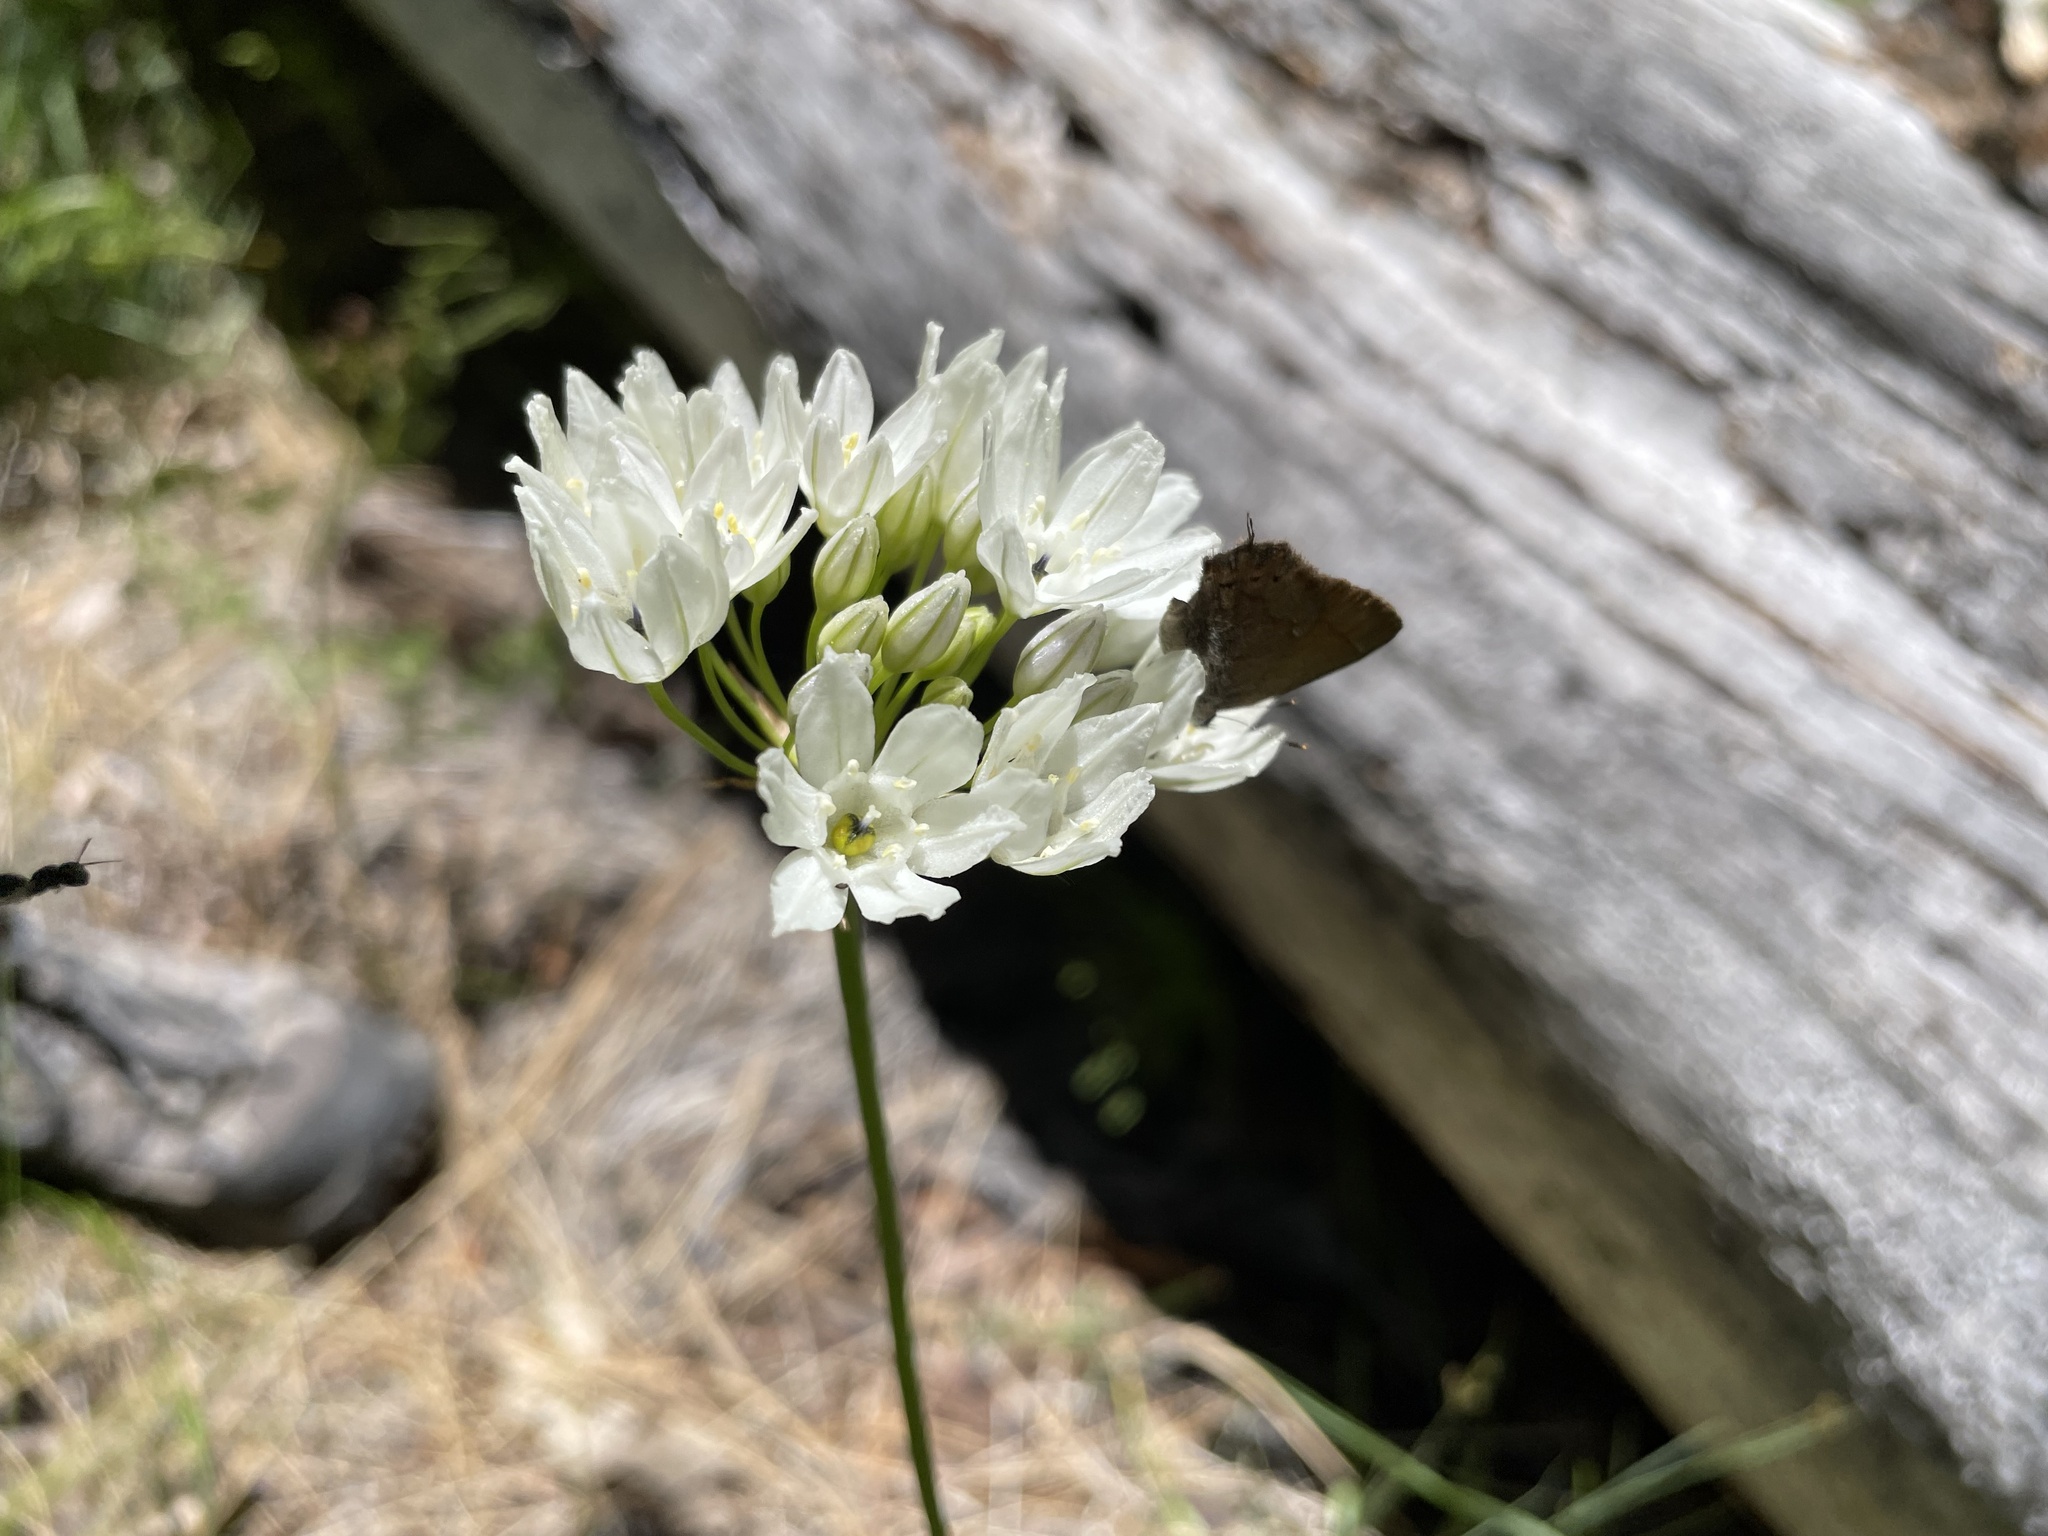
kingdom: Plantae
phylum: Tracheophyta
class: Liliopsida
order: Asparagales
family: Asparagaceae
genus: Triteleia
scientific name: Triteleia hyacinthina
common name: White brodiaea
